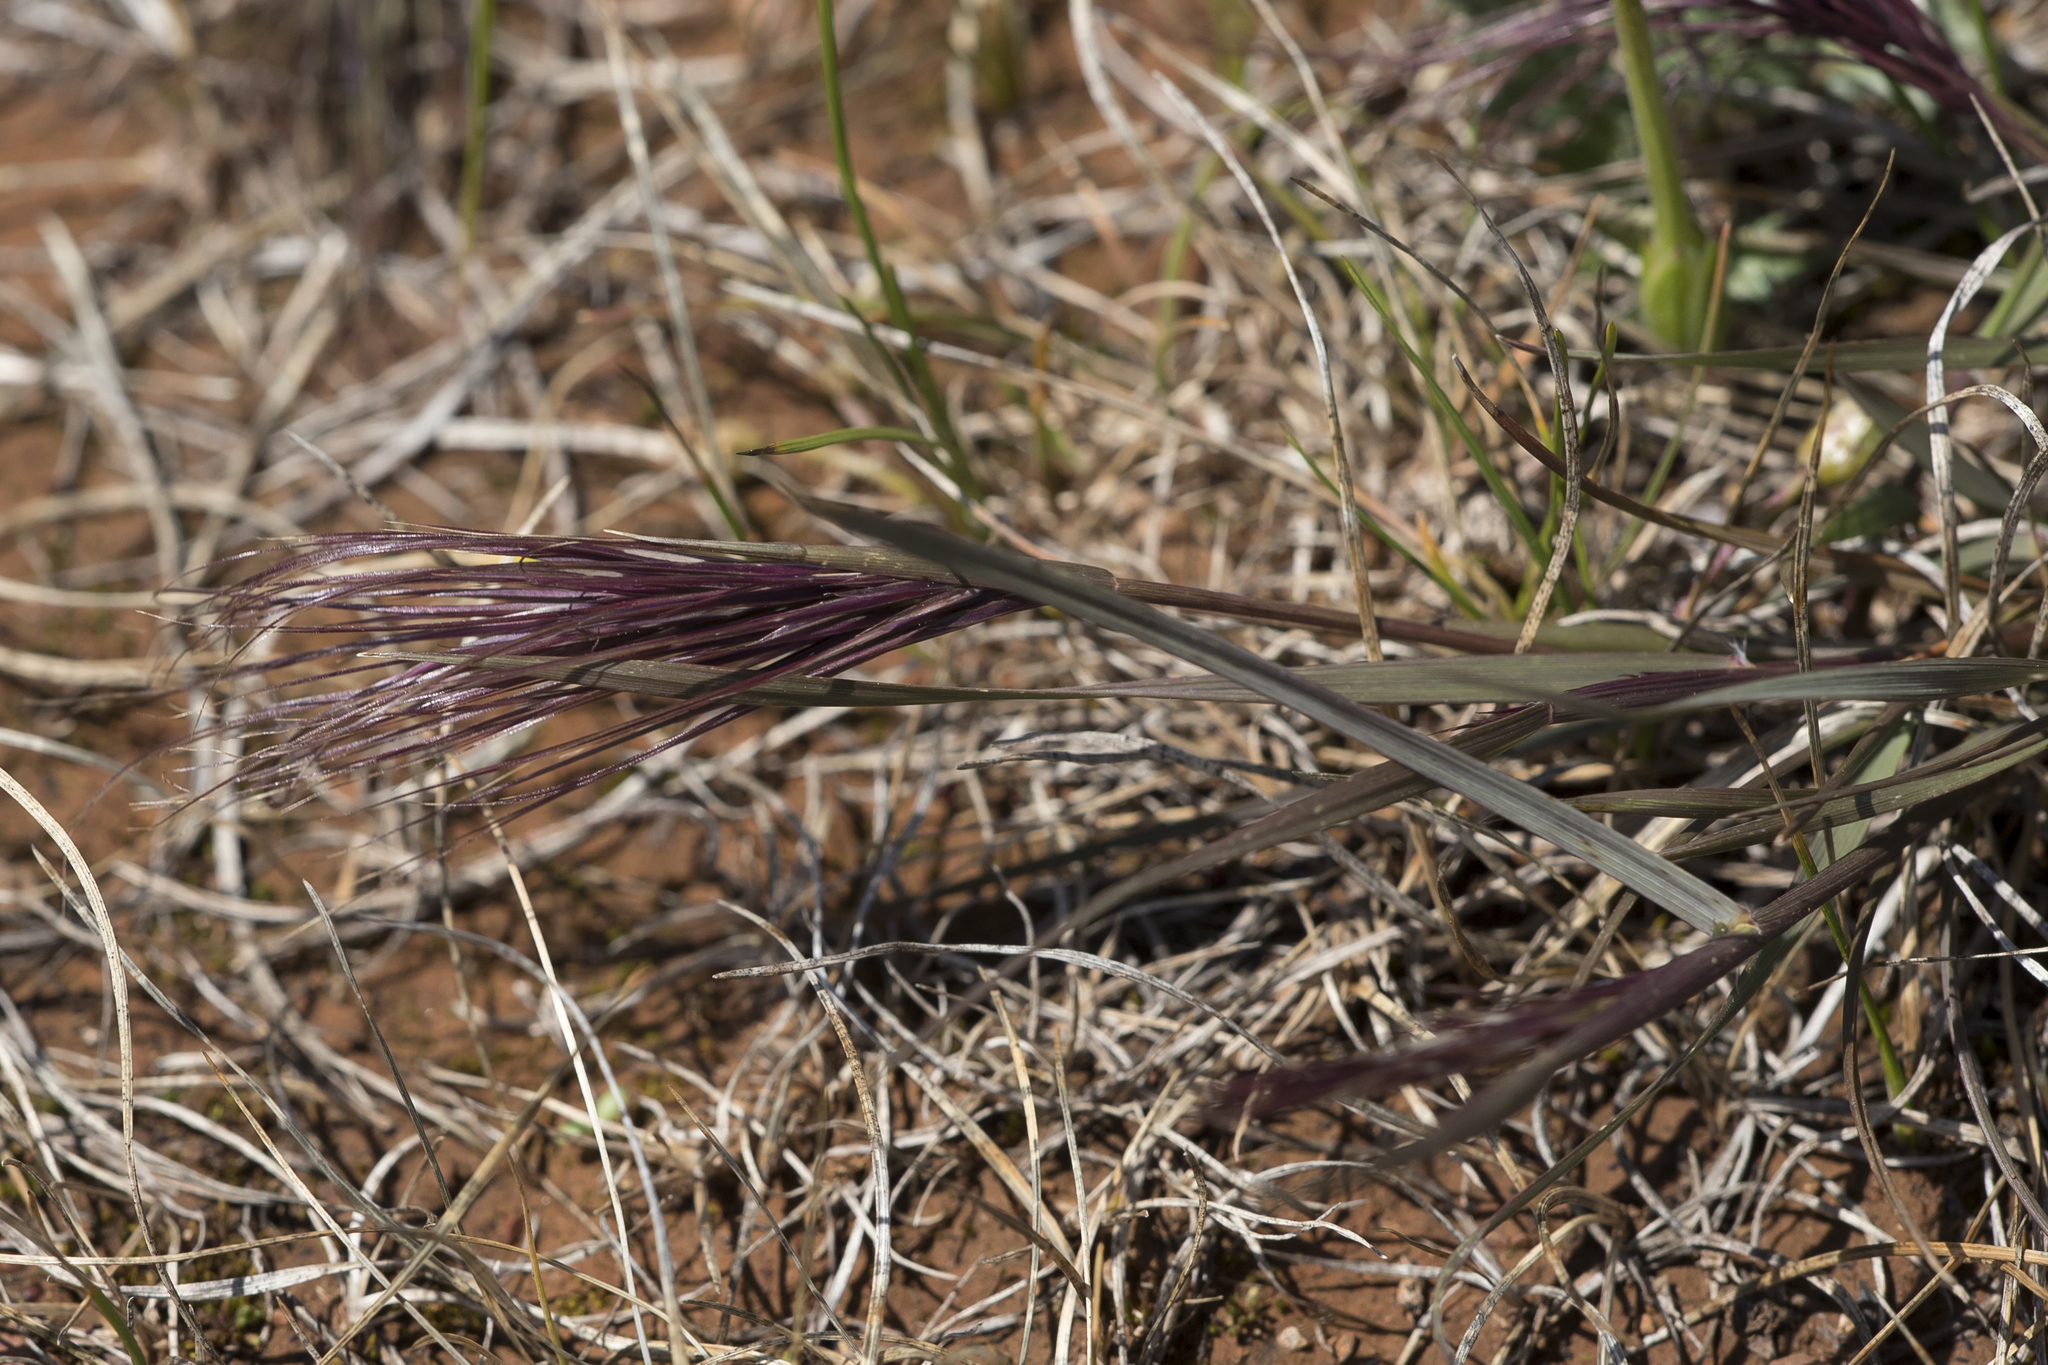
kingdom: Plantae
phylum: Tracheophyta
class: Liliopsida
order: Poales
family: Poaceae
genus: Bromus
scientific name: Bromus rubens
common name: Red brome
